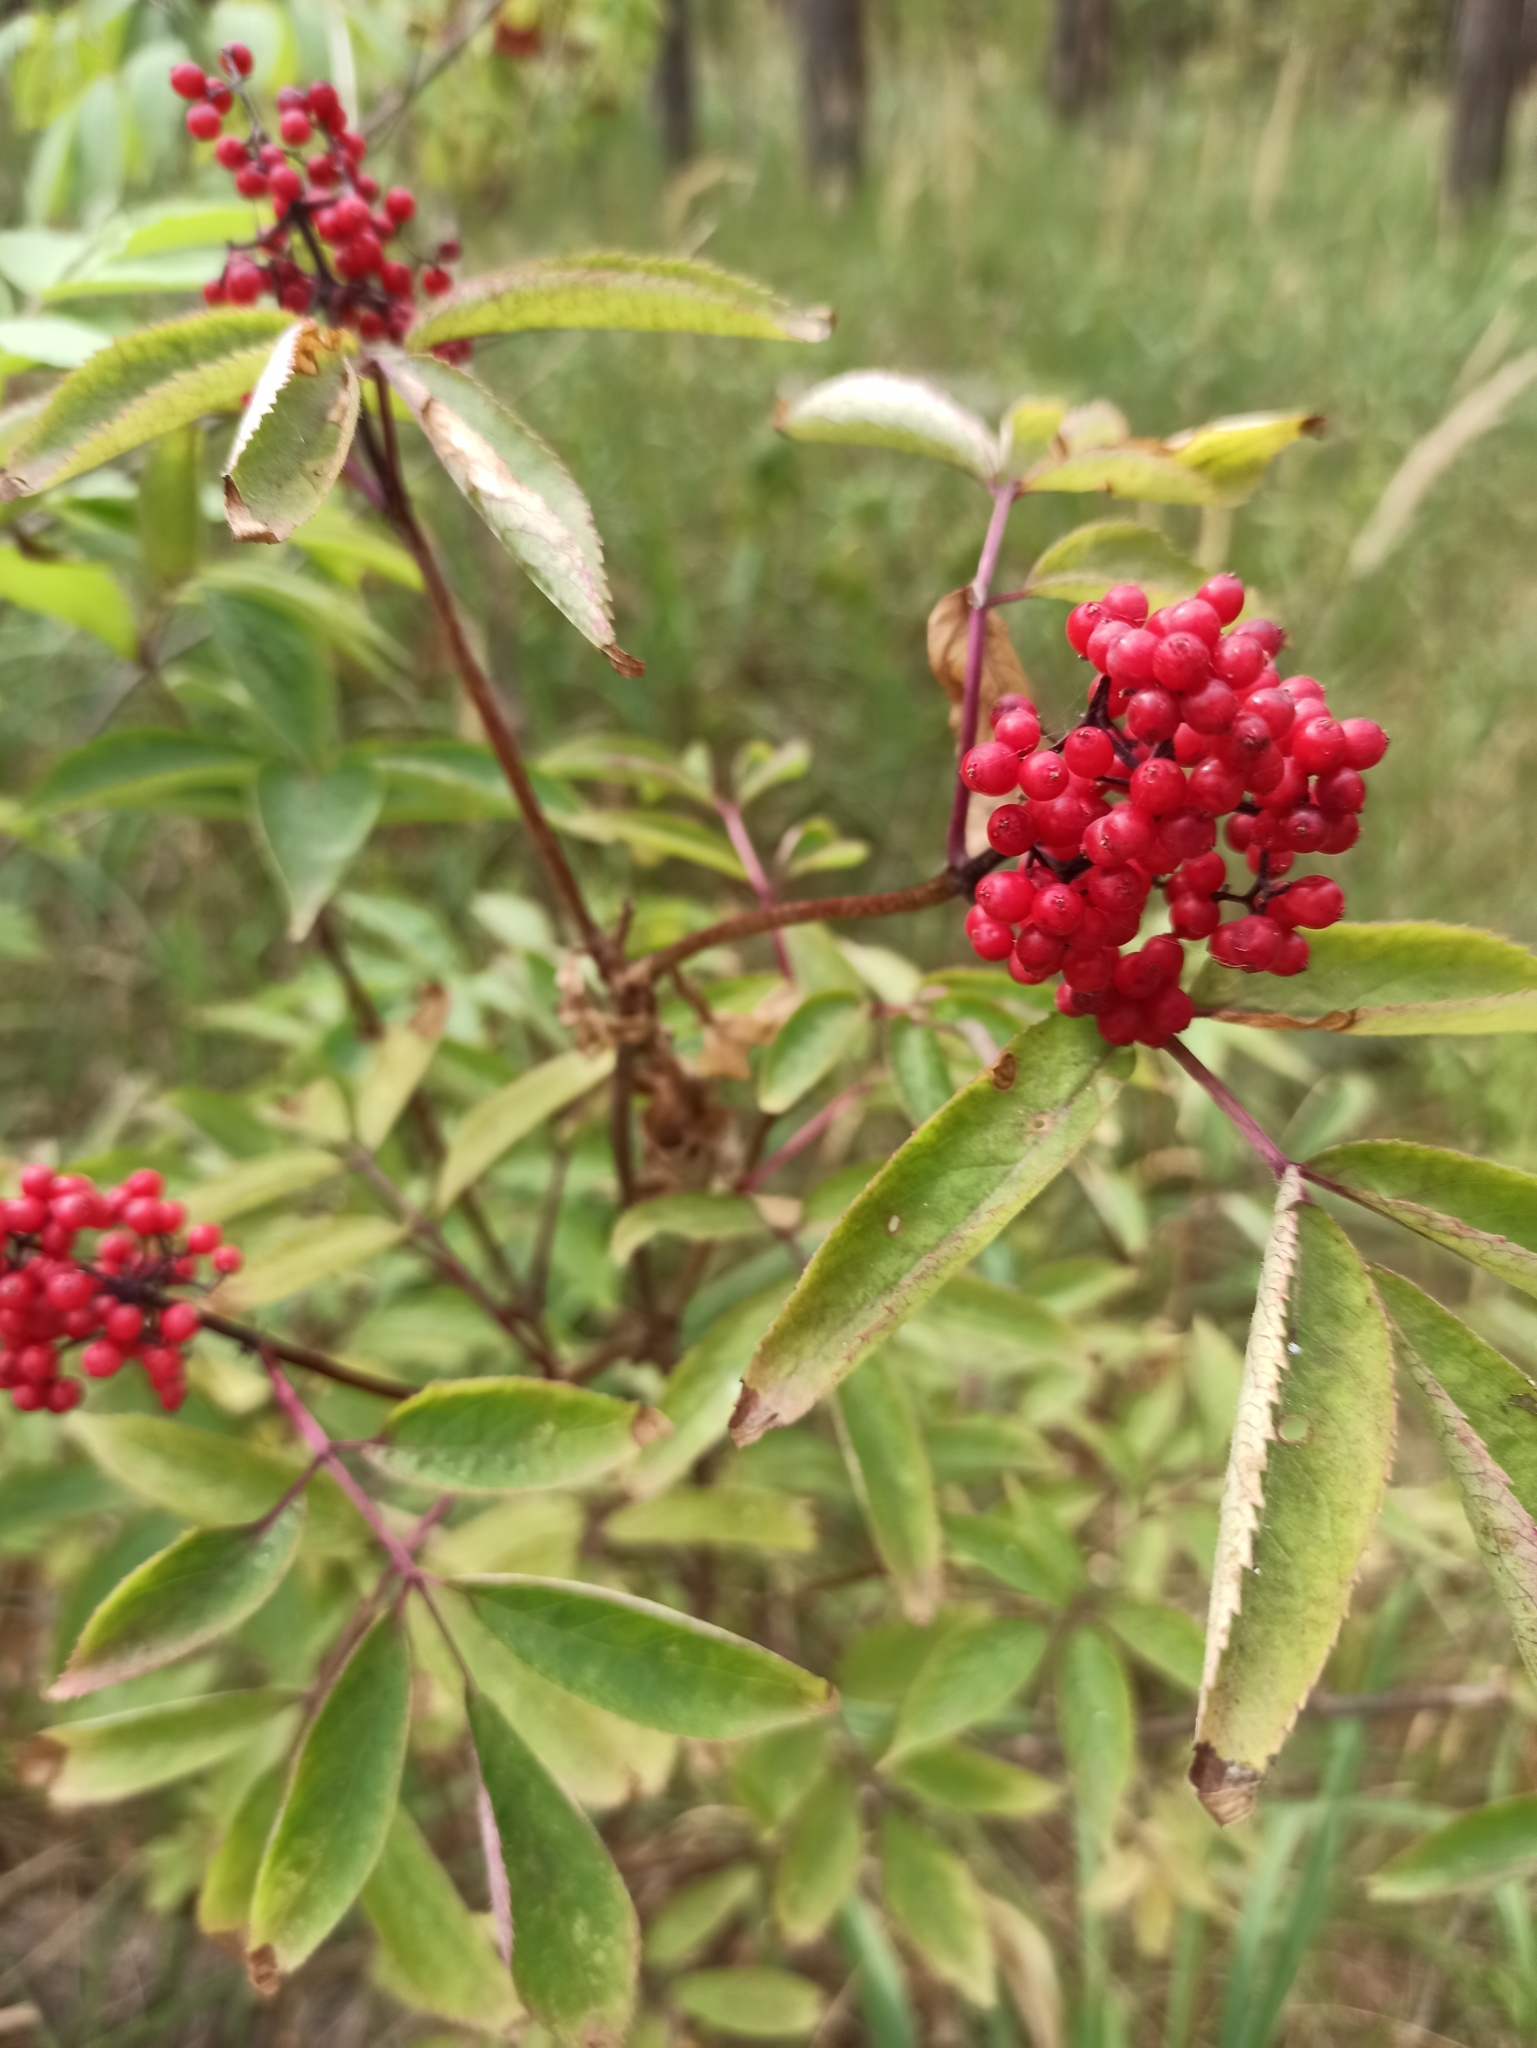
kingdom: Plantae
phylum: Tracheophyta
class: Magnoliopsida
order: Dipsacales
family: Viburnaceae
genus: Sambucus
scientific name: Sambucus racemosa
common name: Red-berried elder
